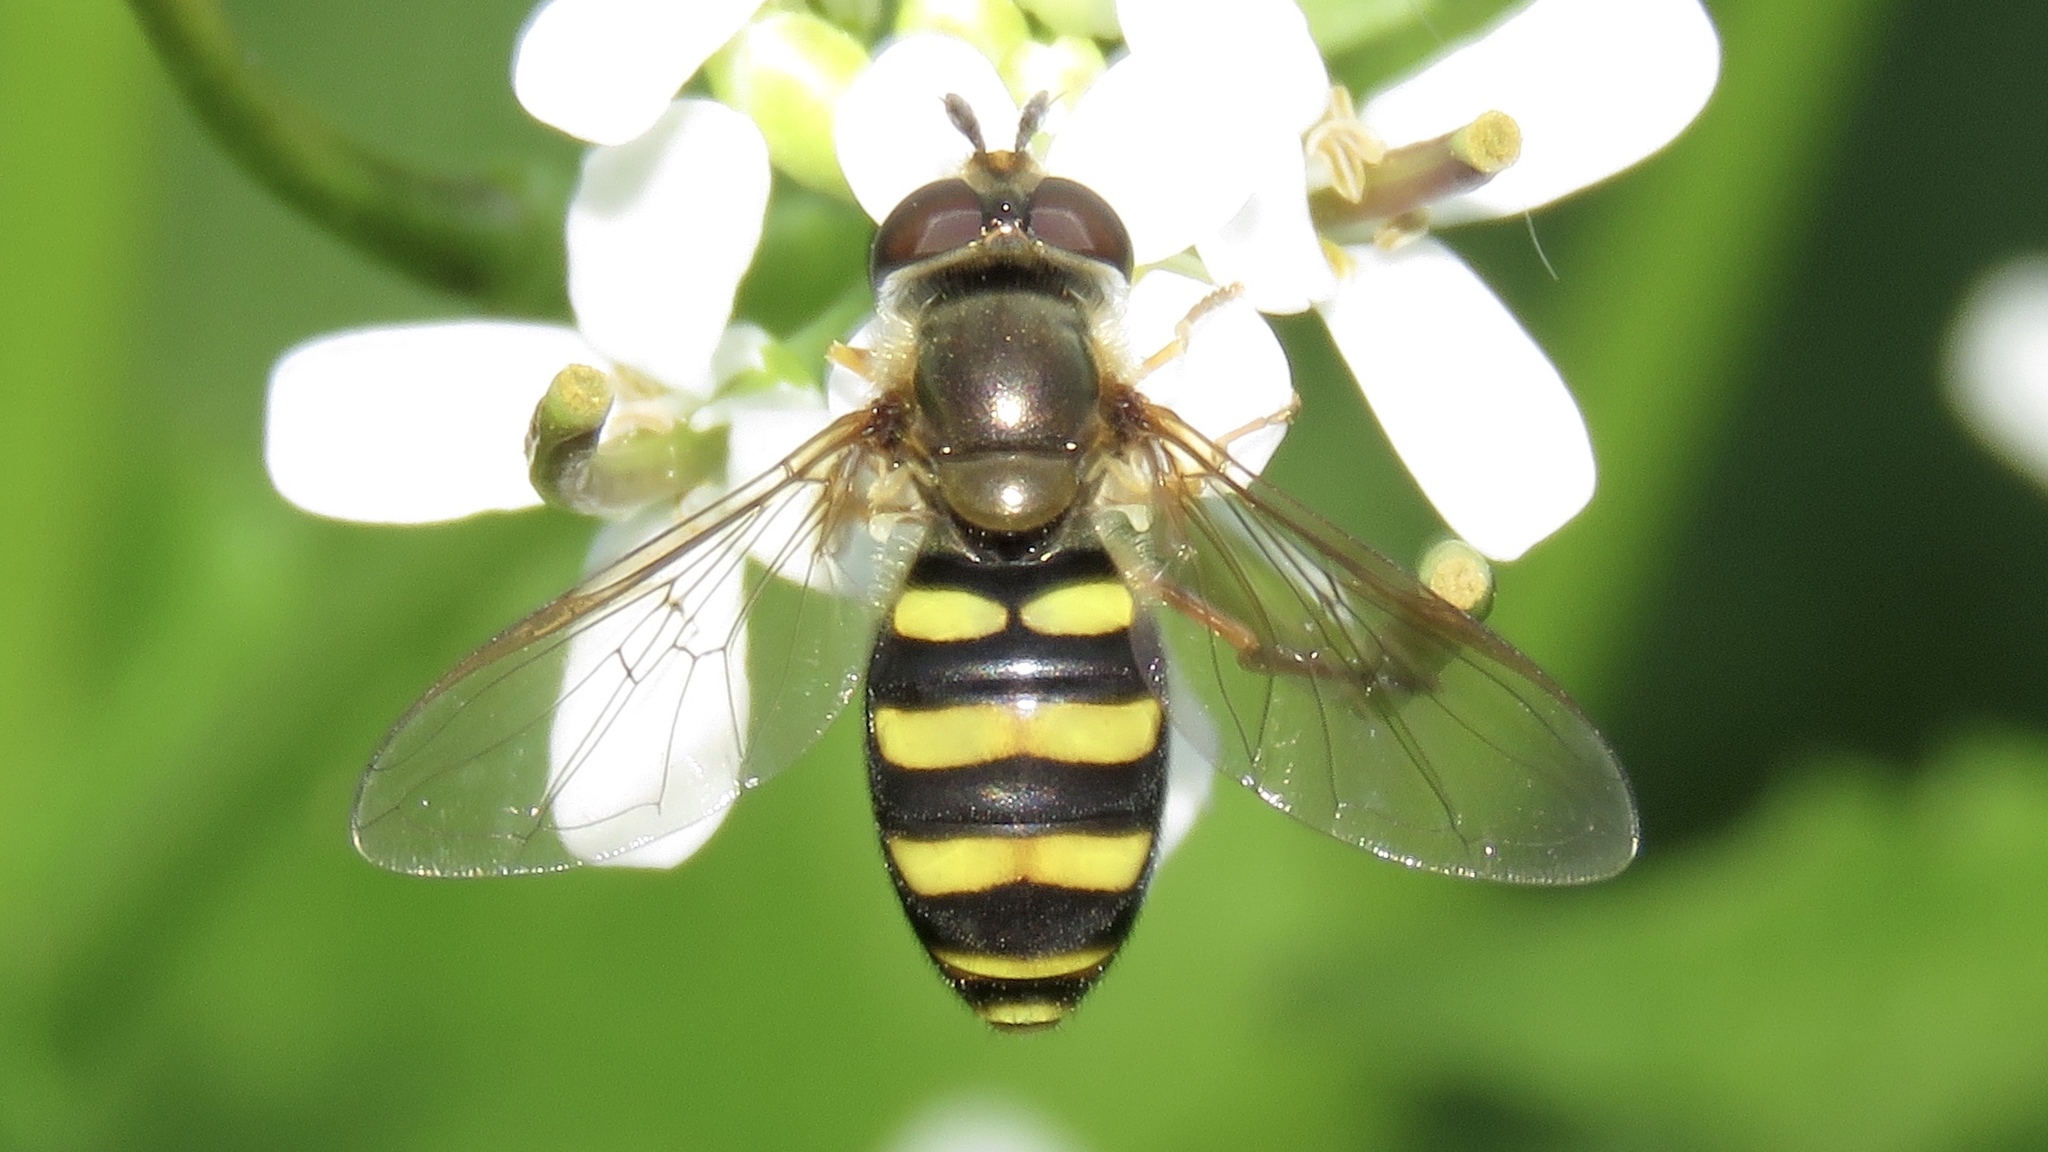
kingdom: Animalia
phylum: Arthropoda
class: Insecta
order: Diptera
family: Syrphidae
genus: Eupeodes
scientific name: Eupeodes
